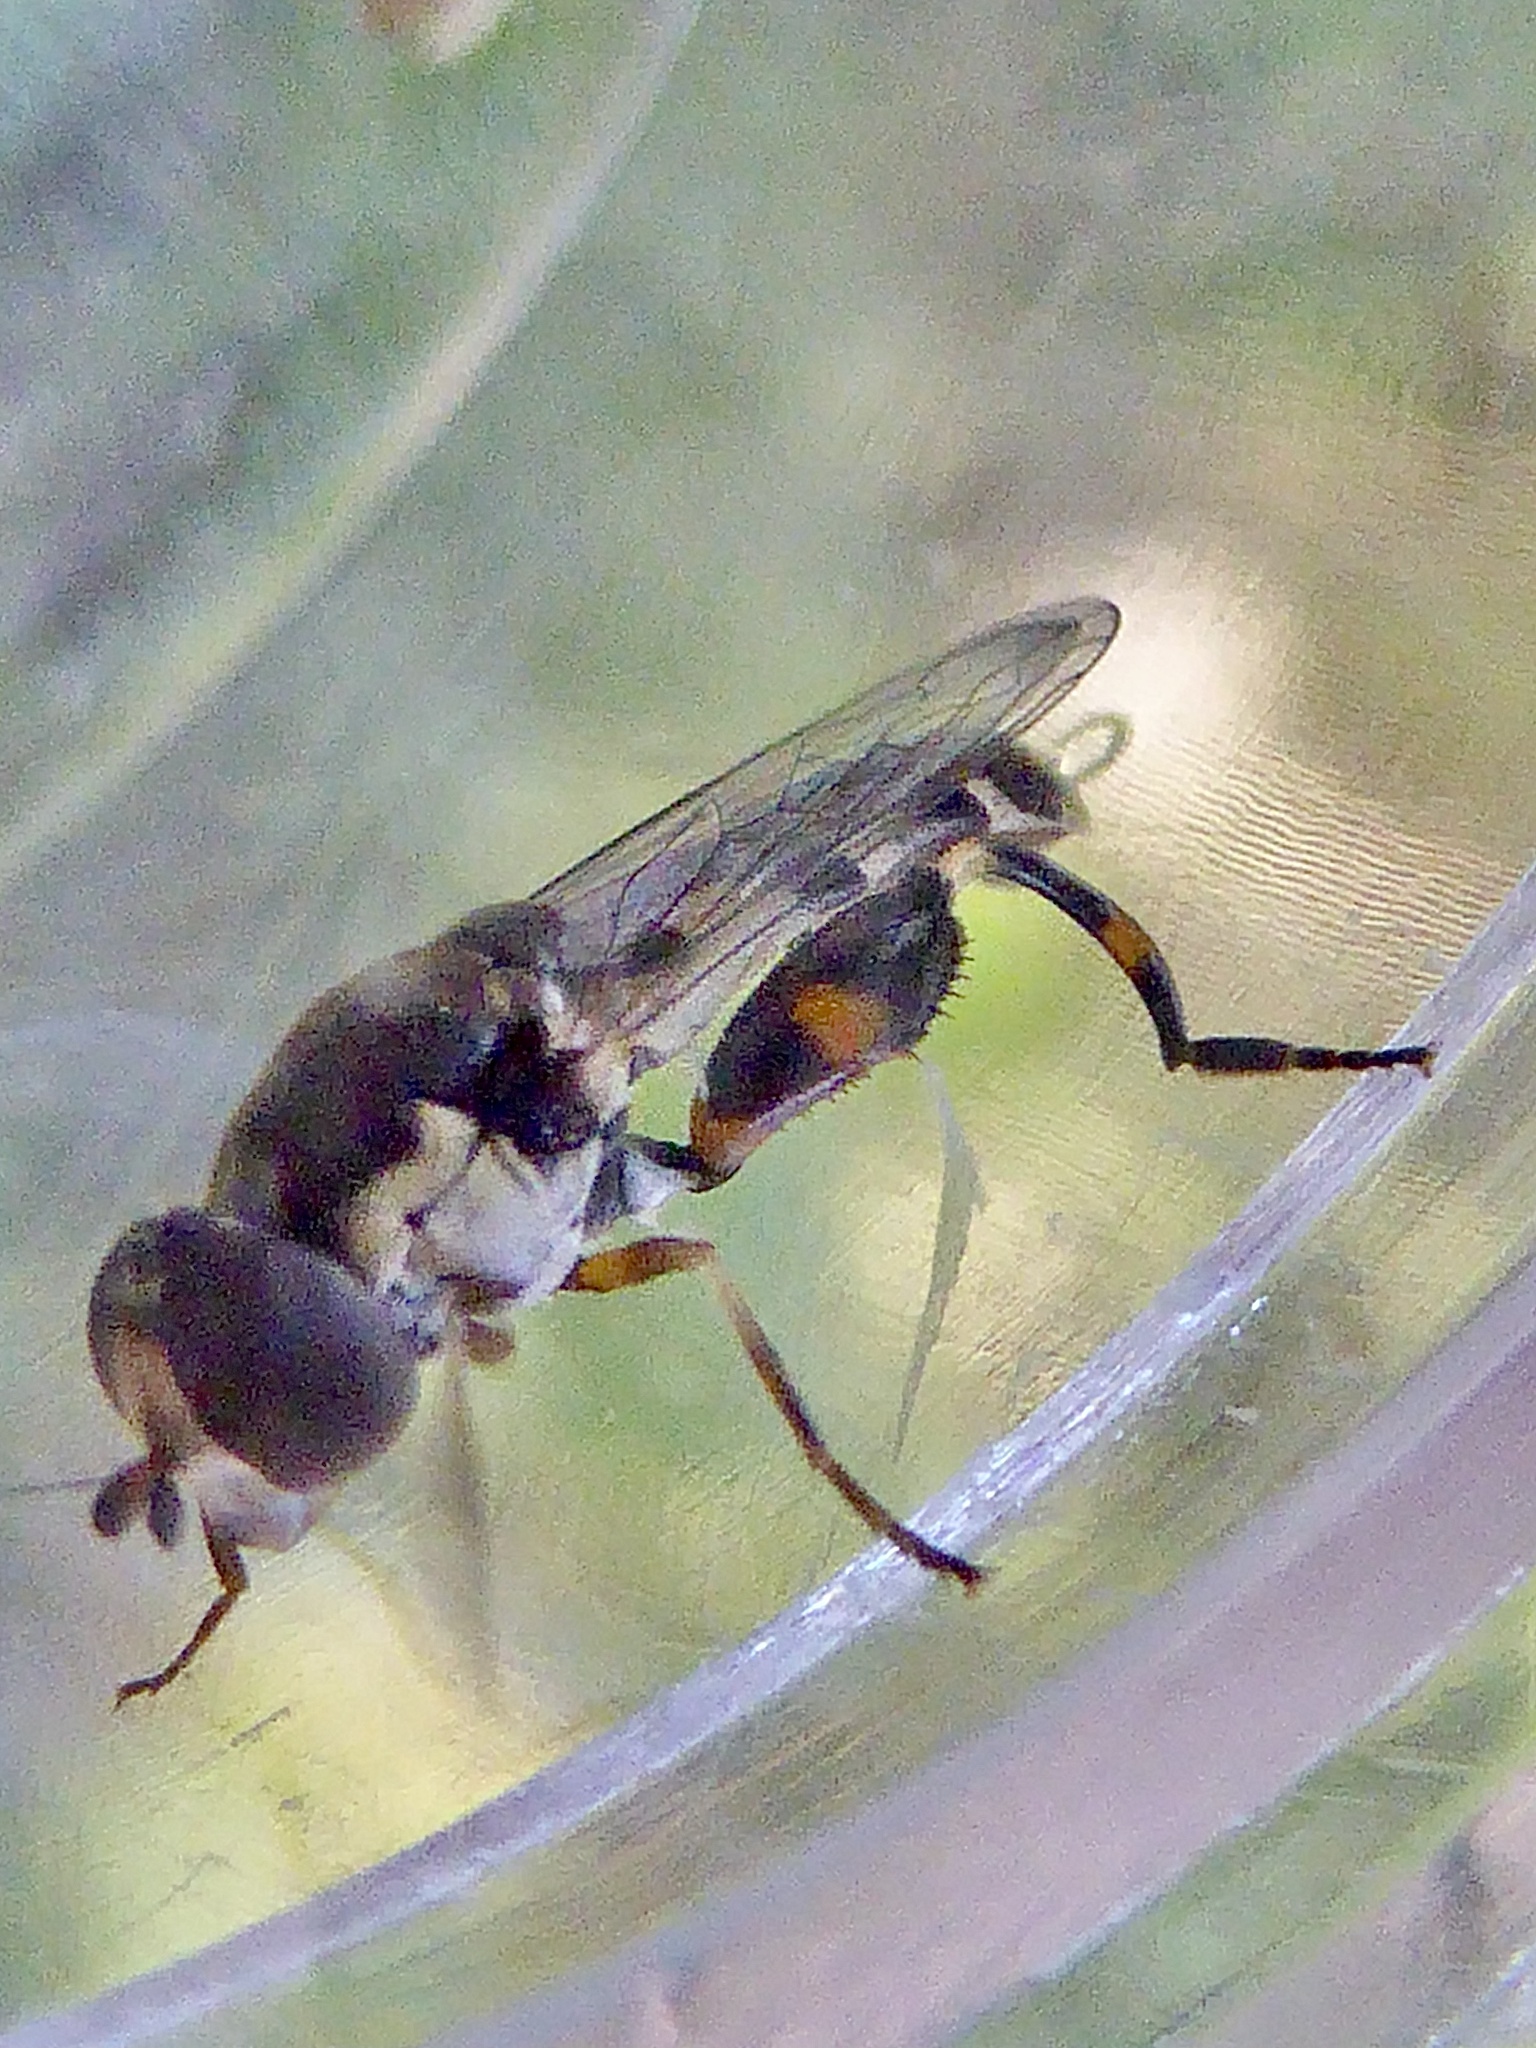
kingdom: Animalia
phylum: Arthropoda
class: Insecta
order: Diptera
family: Syrphidae
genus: Syritta
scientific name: Syritta pipiens
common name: Hover fly
